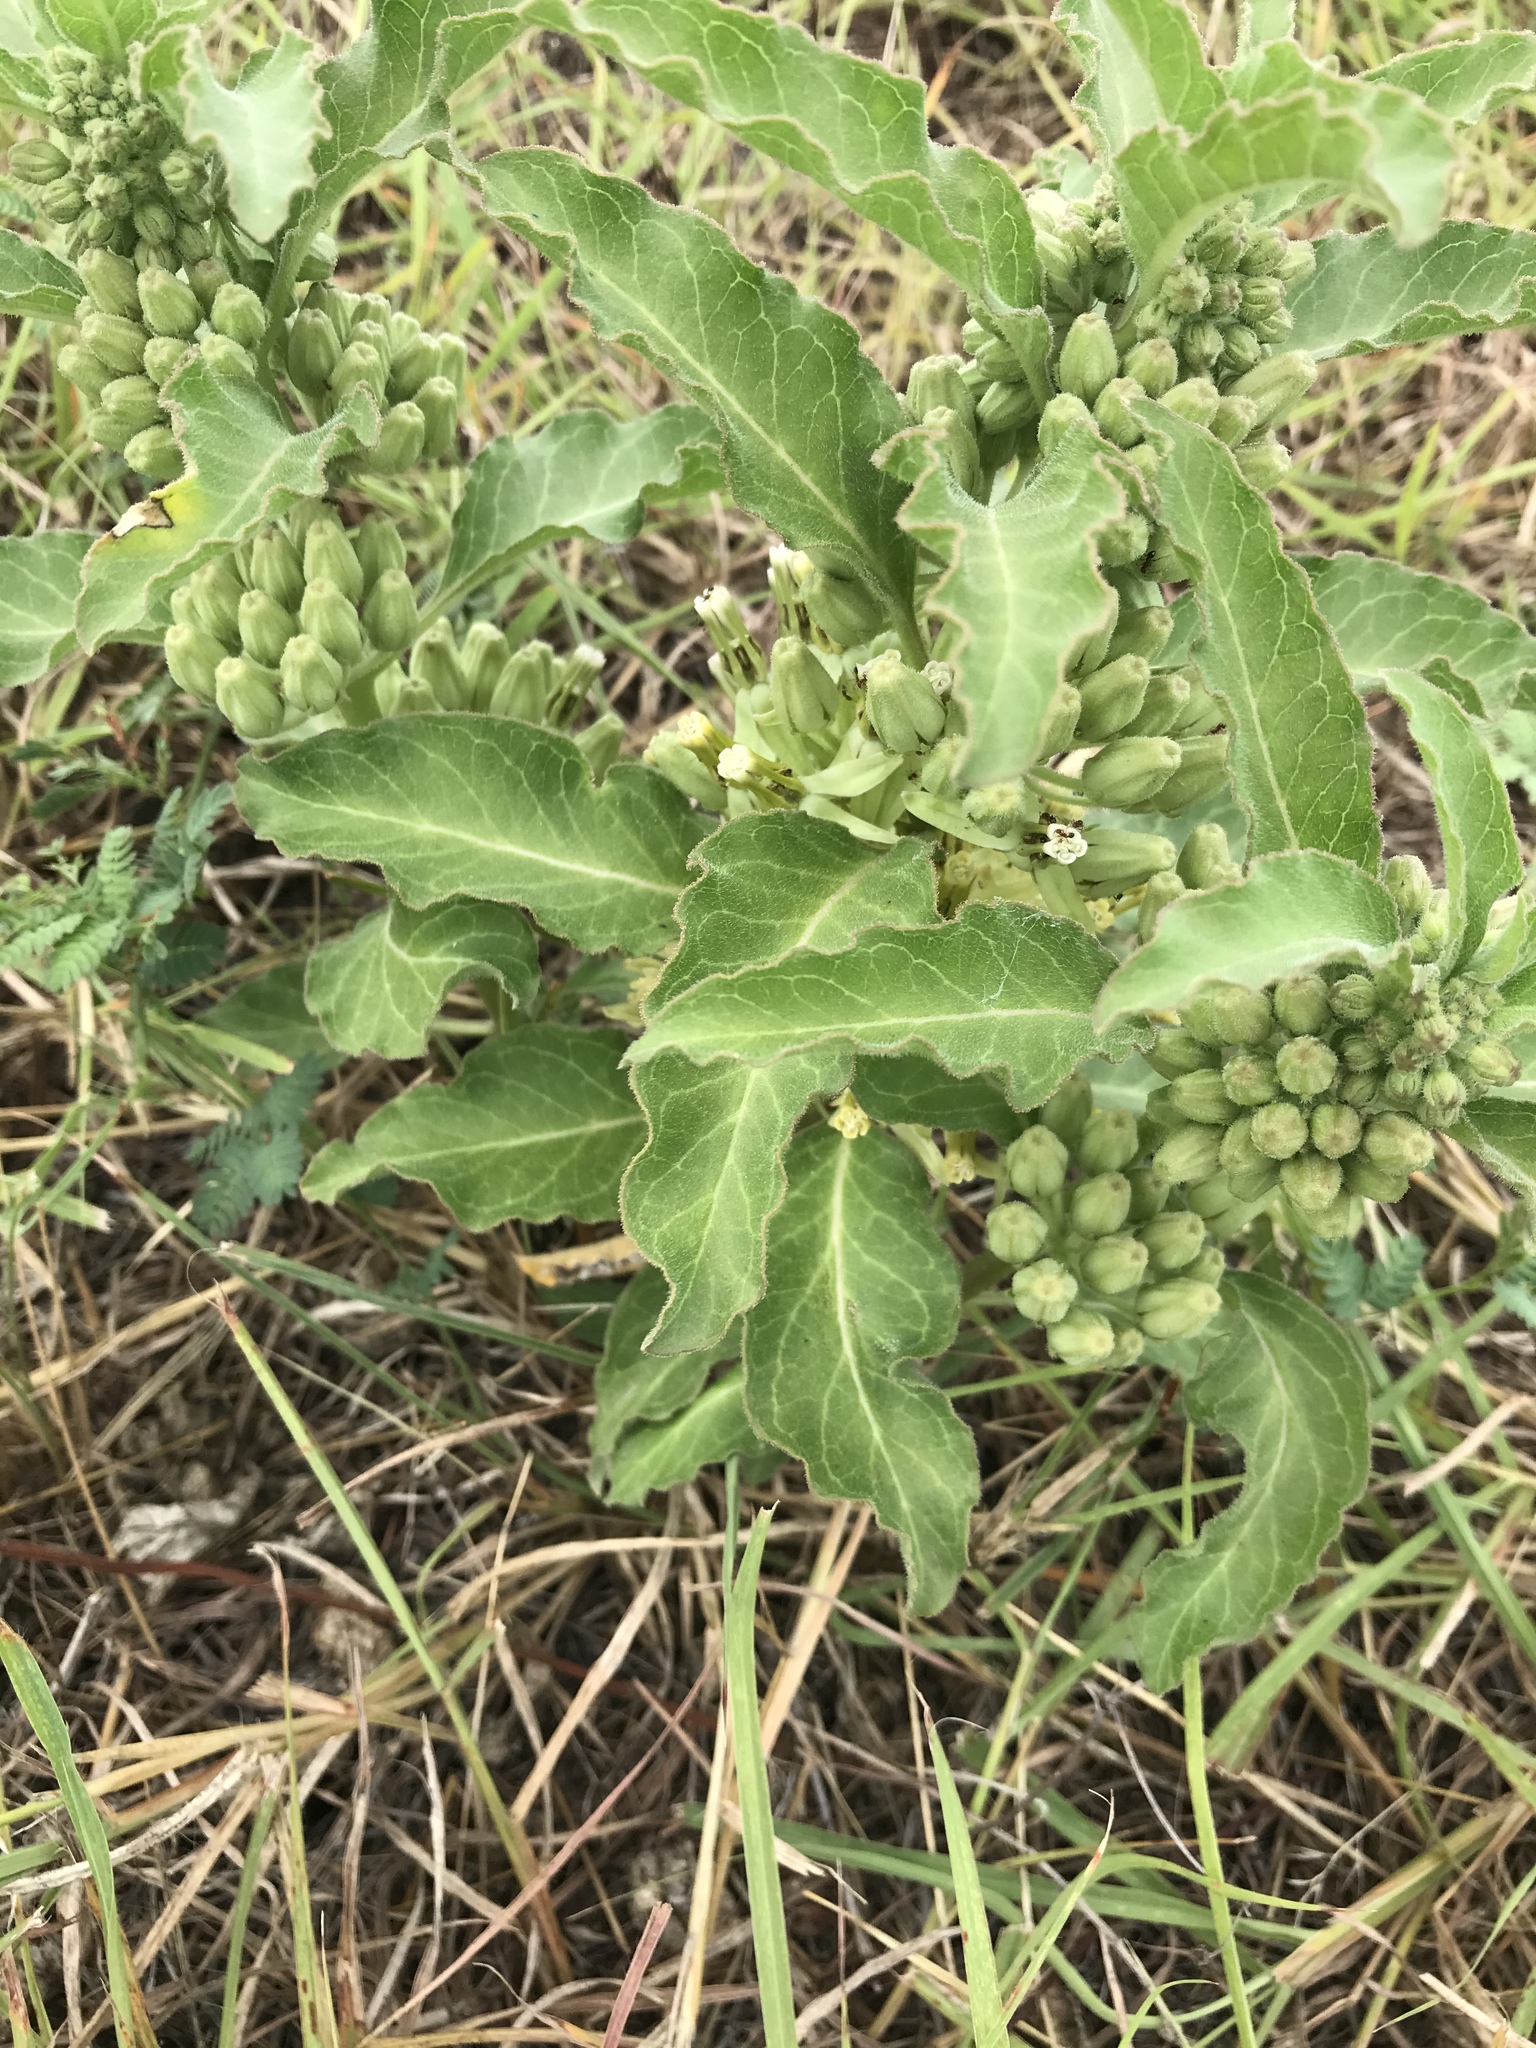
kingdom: Plantae
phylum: Tracheophyta
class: Magnoliopsida
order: Gentianales
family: Apocynaceae
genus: Asclepias
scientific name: Asclepias oenotheroides
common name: Zizotes milkweed
